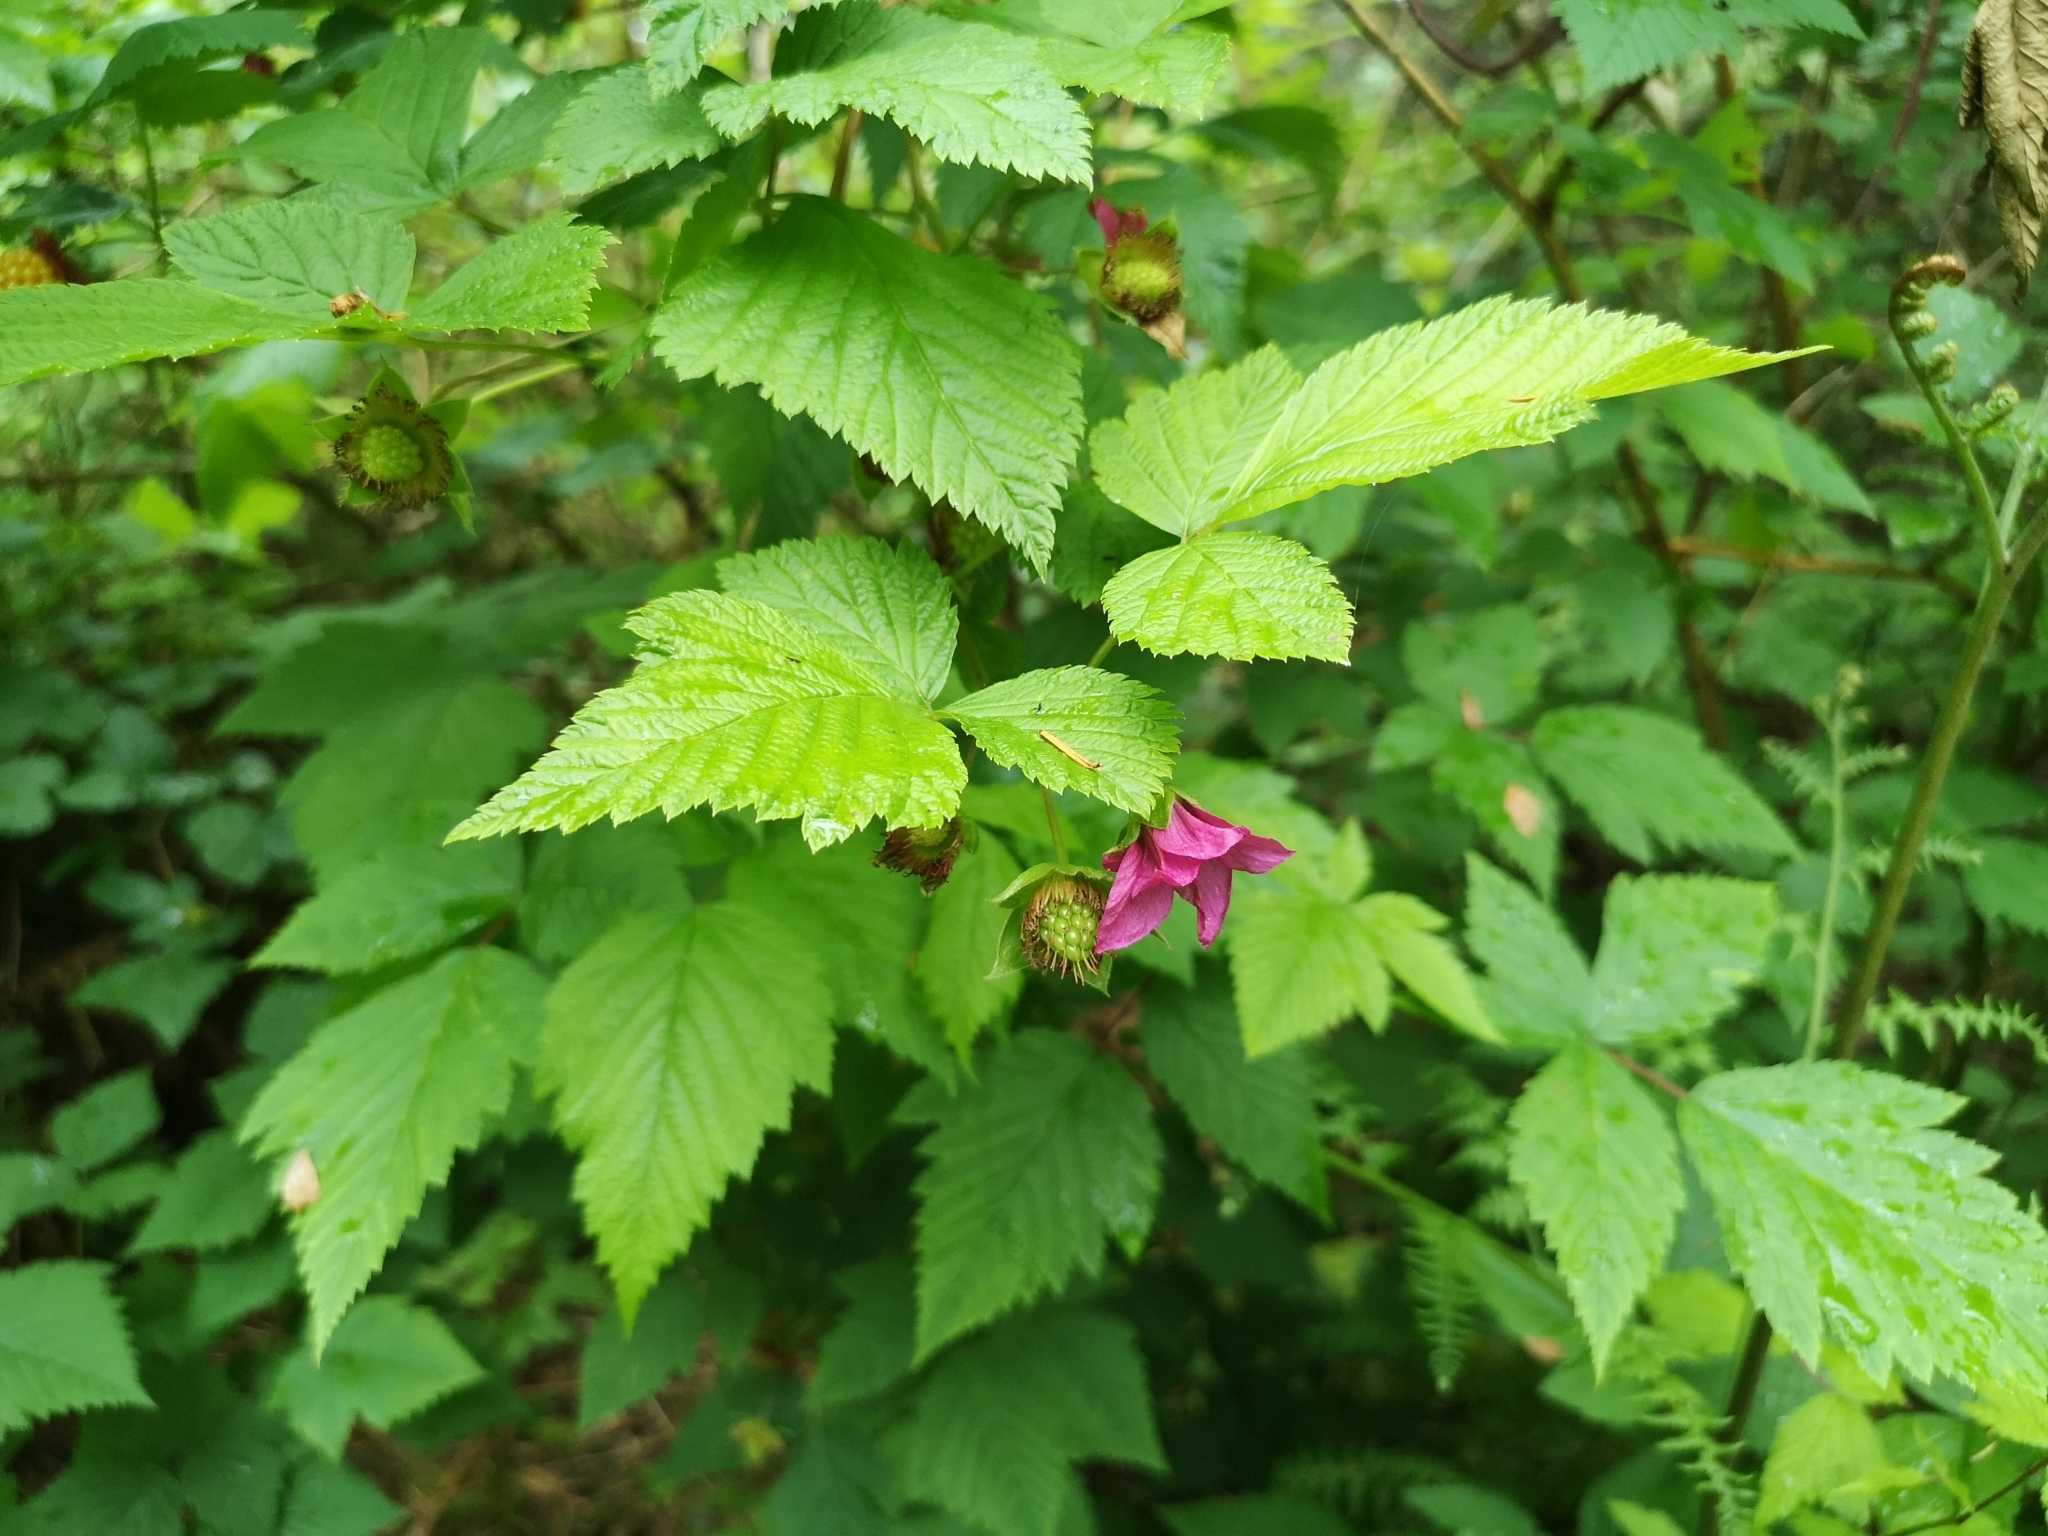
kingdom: Plantae
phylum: Tracheophyta
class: Magnoliopsida
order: Rosales
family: Rosaceae
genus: Rubus
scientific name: Rubus spectabilis
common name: Salmonberry
